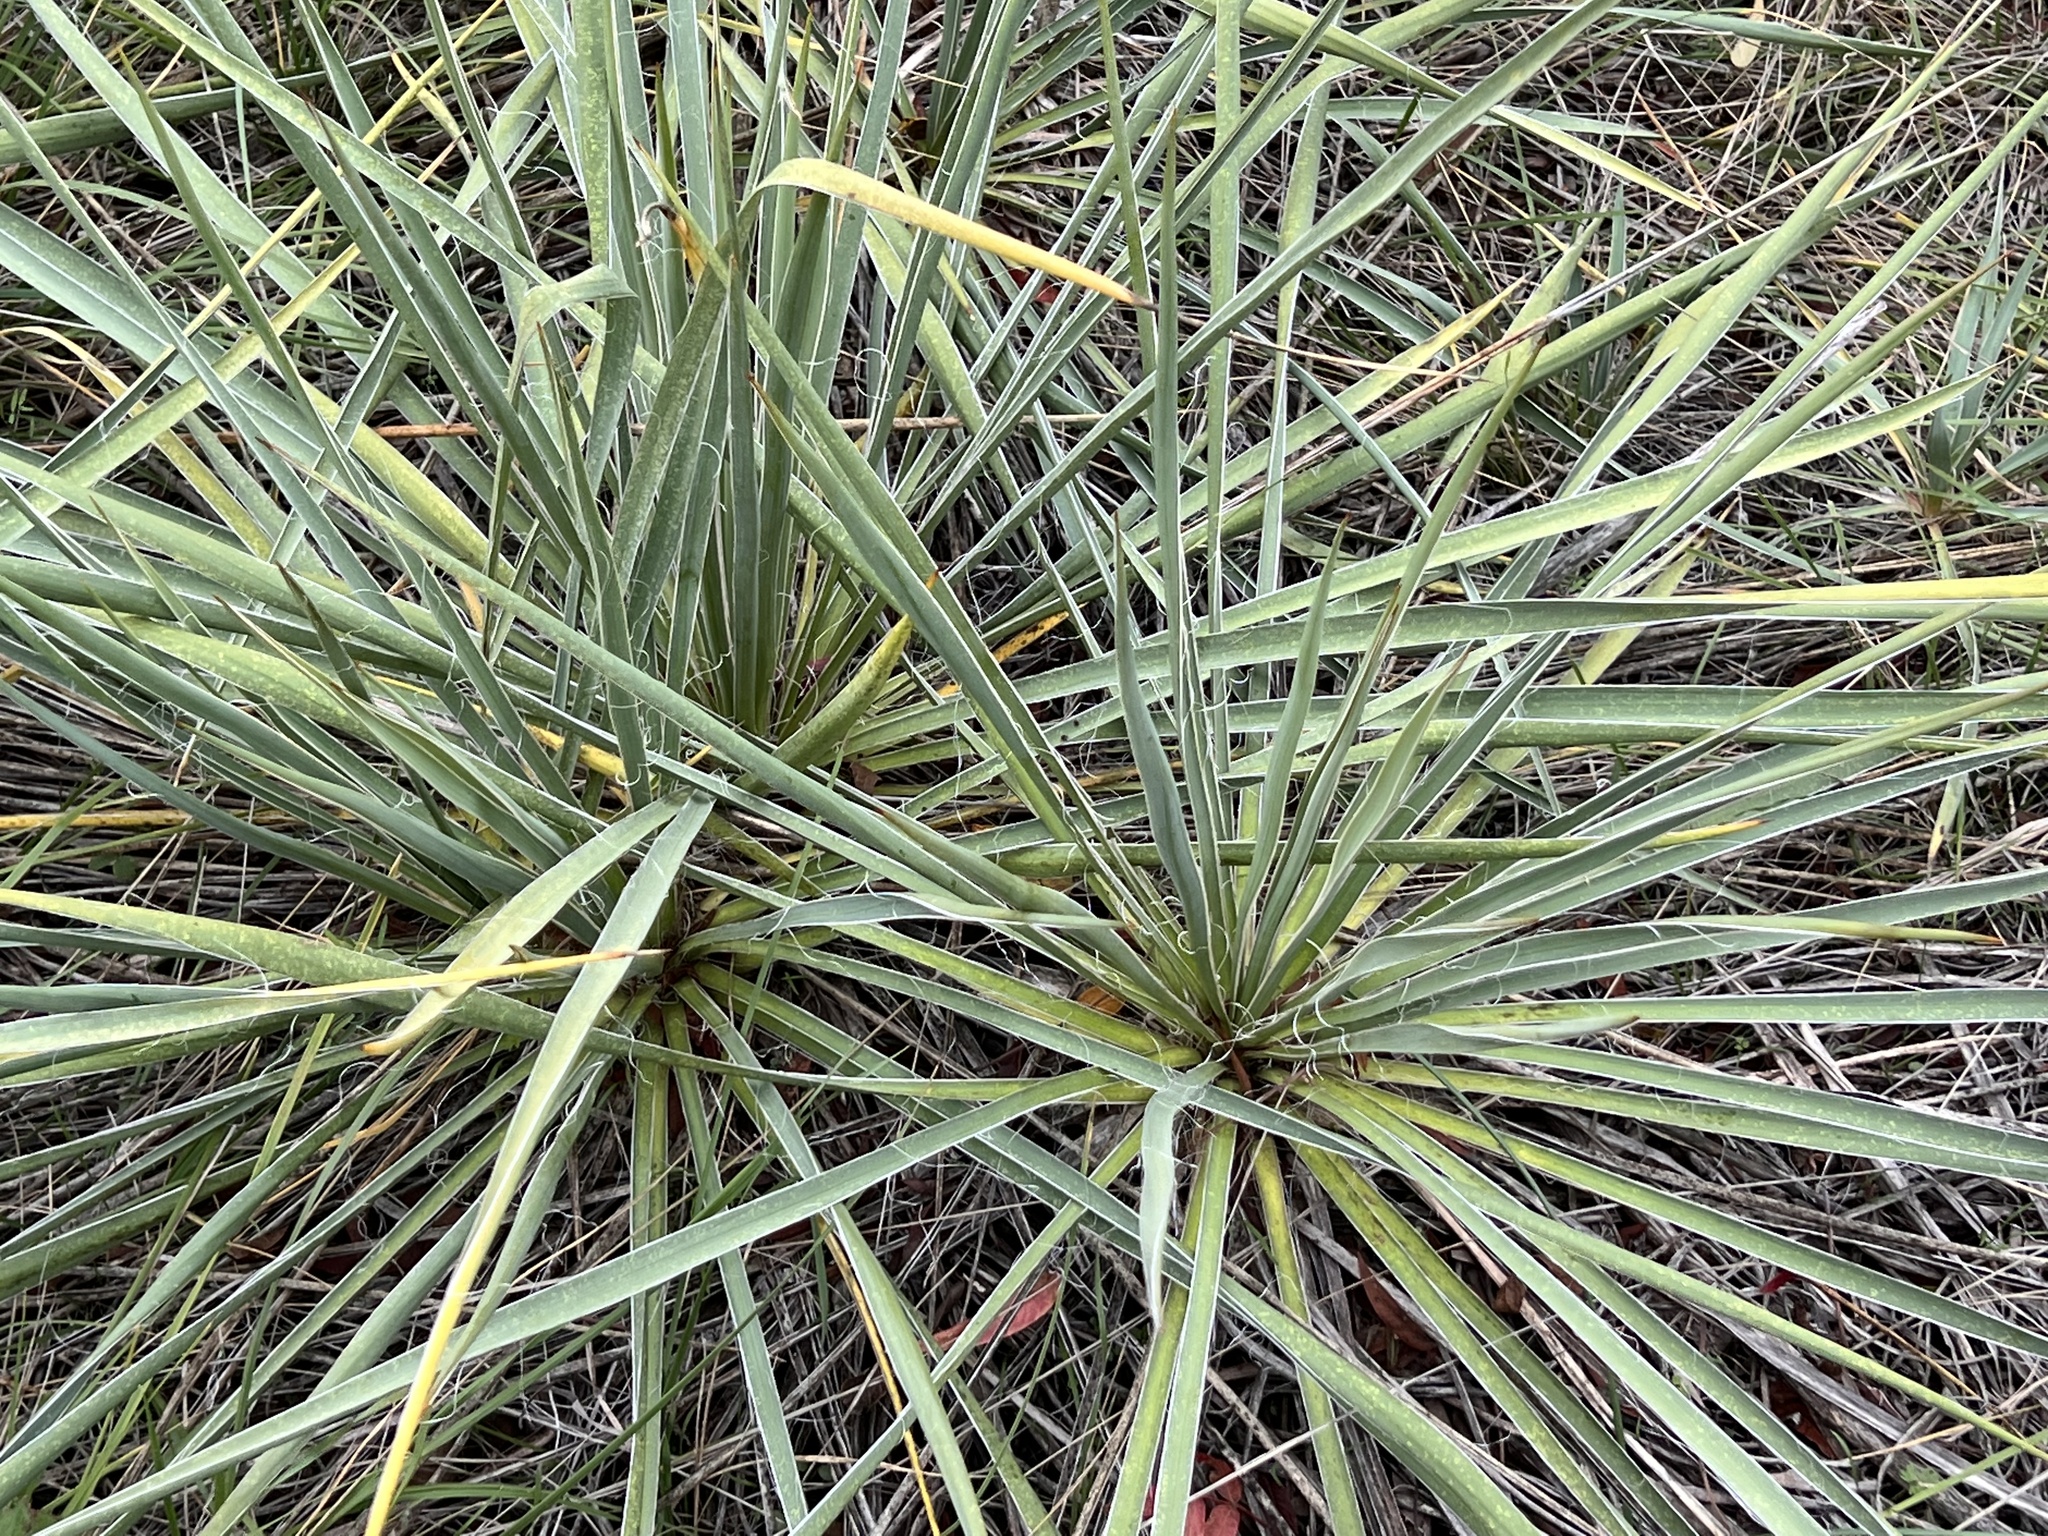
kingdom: Plantae
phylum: Tracheophyta
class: Liliopsida
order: Asparagales
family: Asparagaceae
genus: Yucca
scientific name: Yucca arkansana
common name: Arkansas yucca
